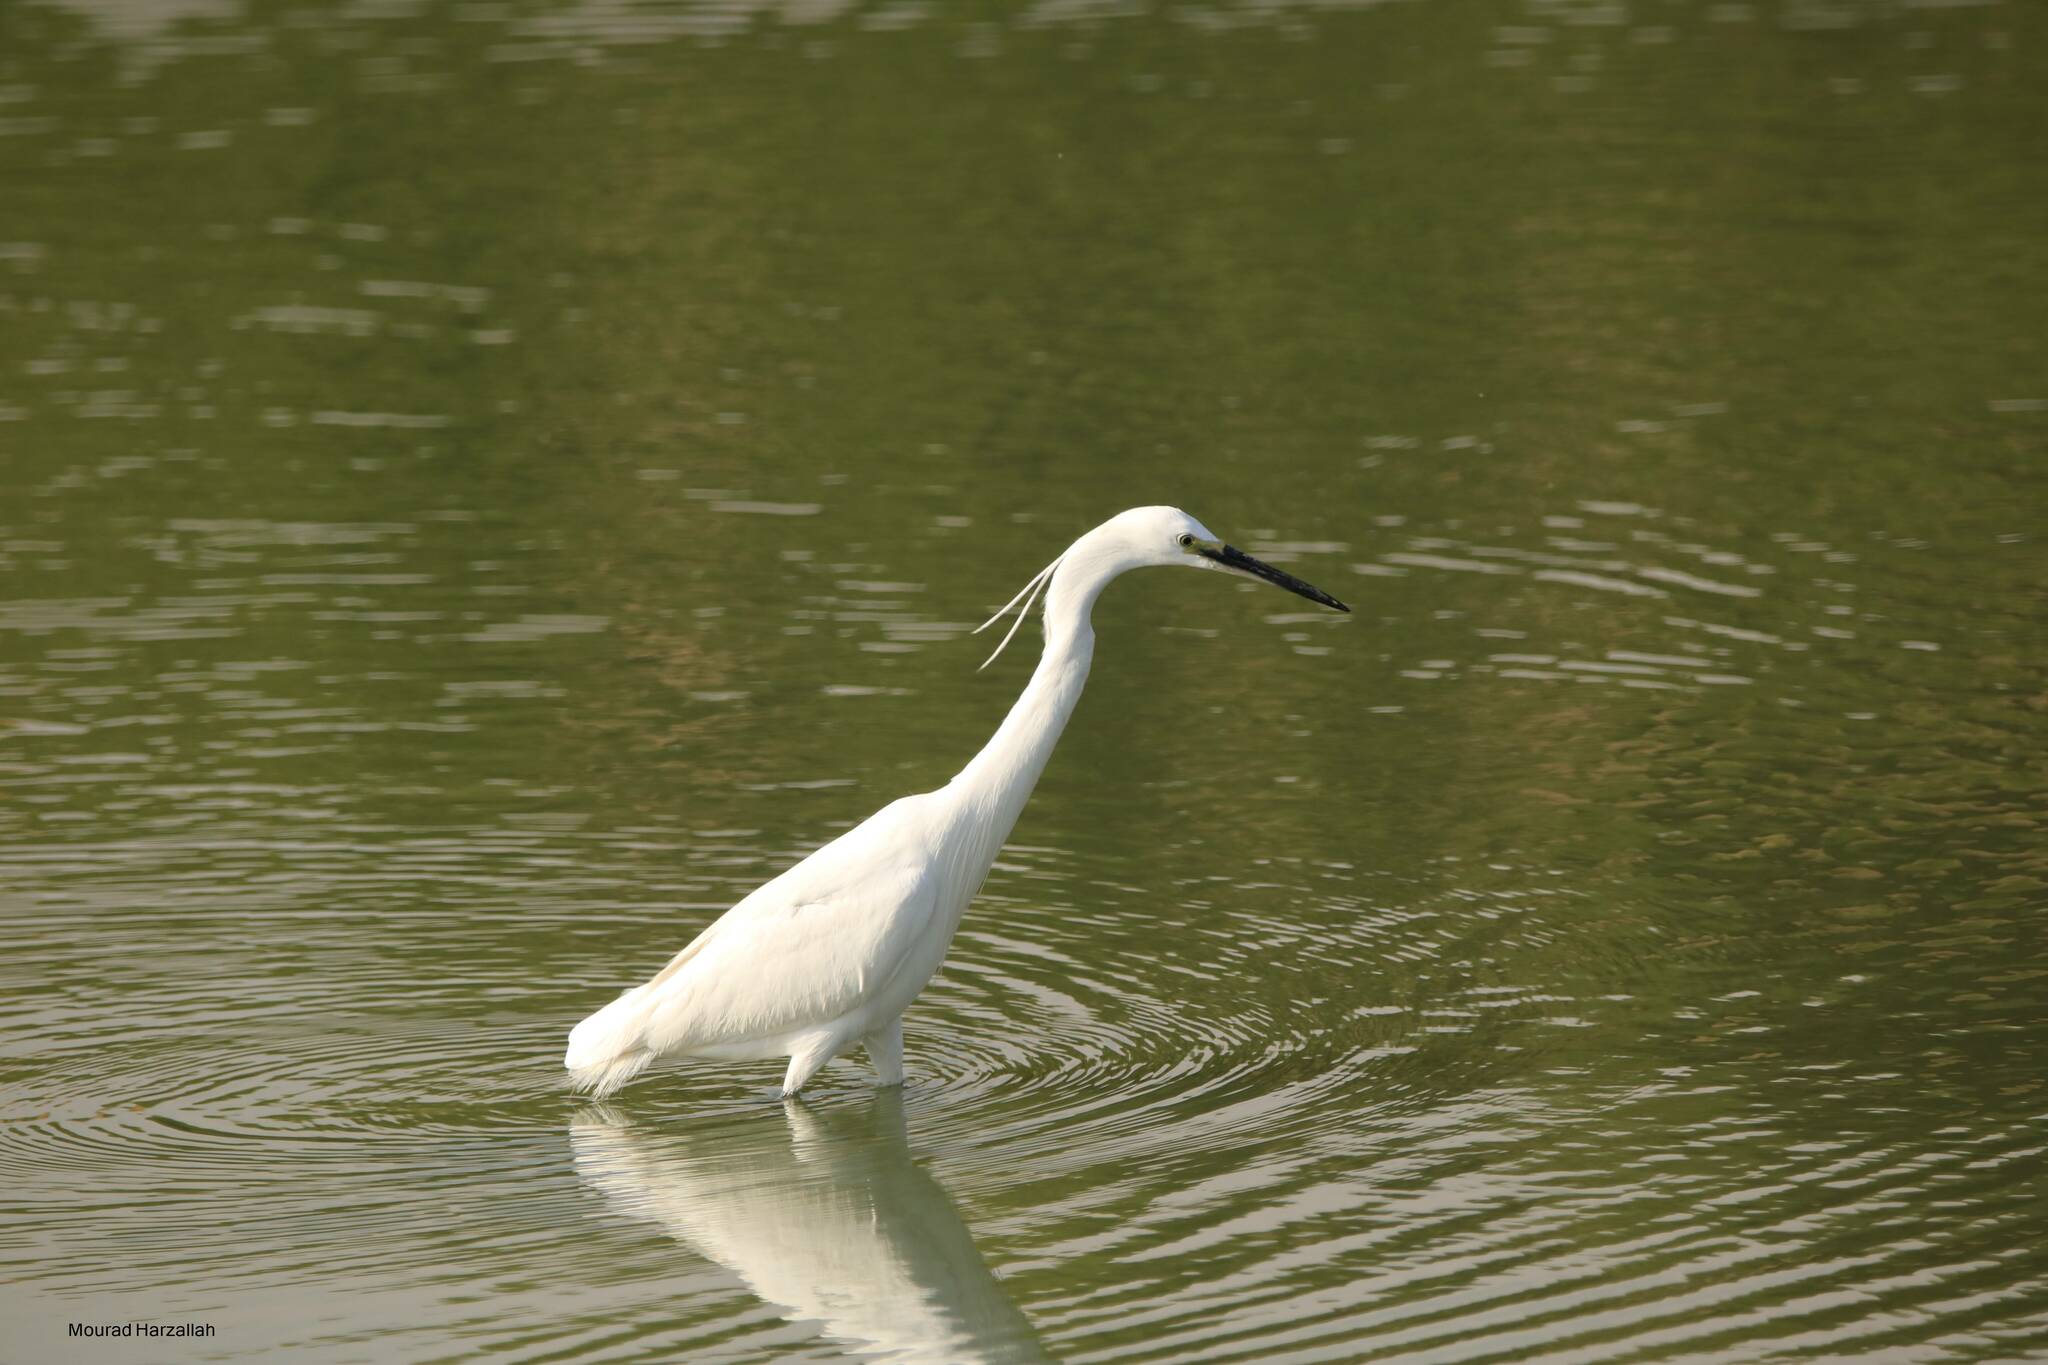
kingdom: Animalia
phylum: Chordata
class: Aves
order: Pelecaniformes
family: Ardeidae
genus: Egretta
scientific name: Egretta garzetta
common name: Little egret
